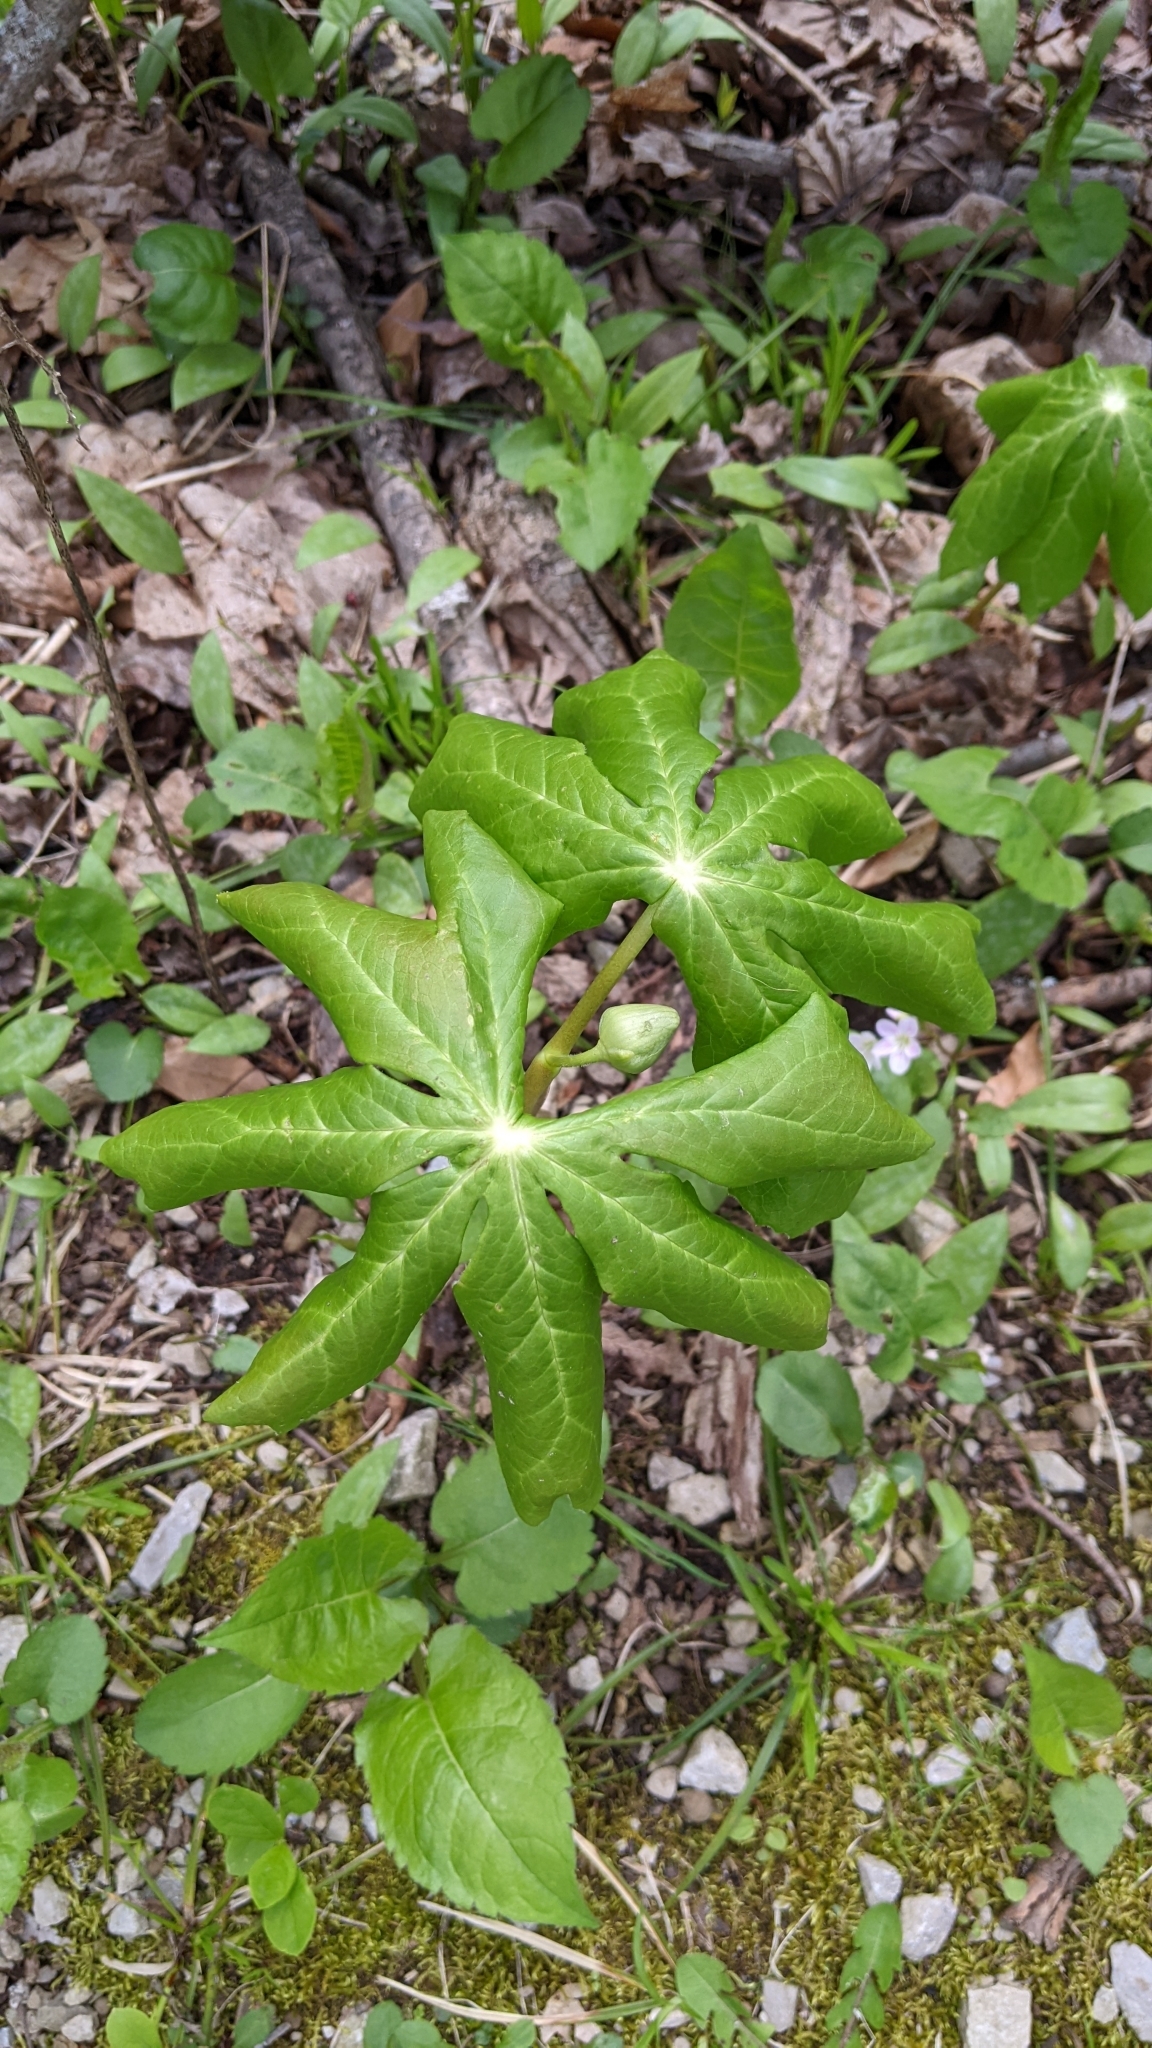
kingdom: Plantae
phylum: Tracheophyta
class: Magnoliopsida
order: Ranunculales
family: Berberidaceae
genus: Podophyllum
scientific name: Podophyllum peltatum
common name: Wild mandrake
